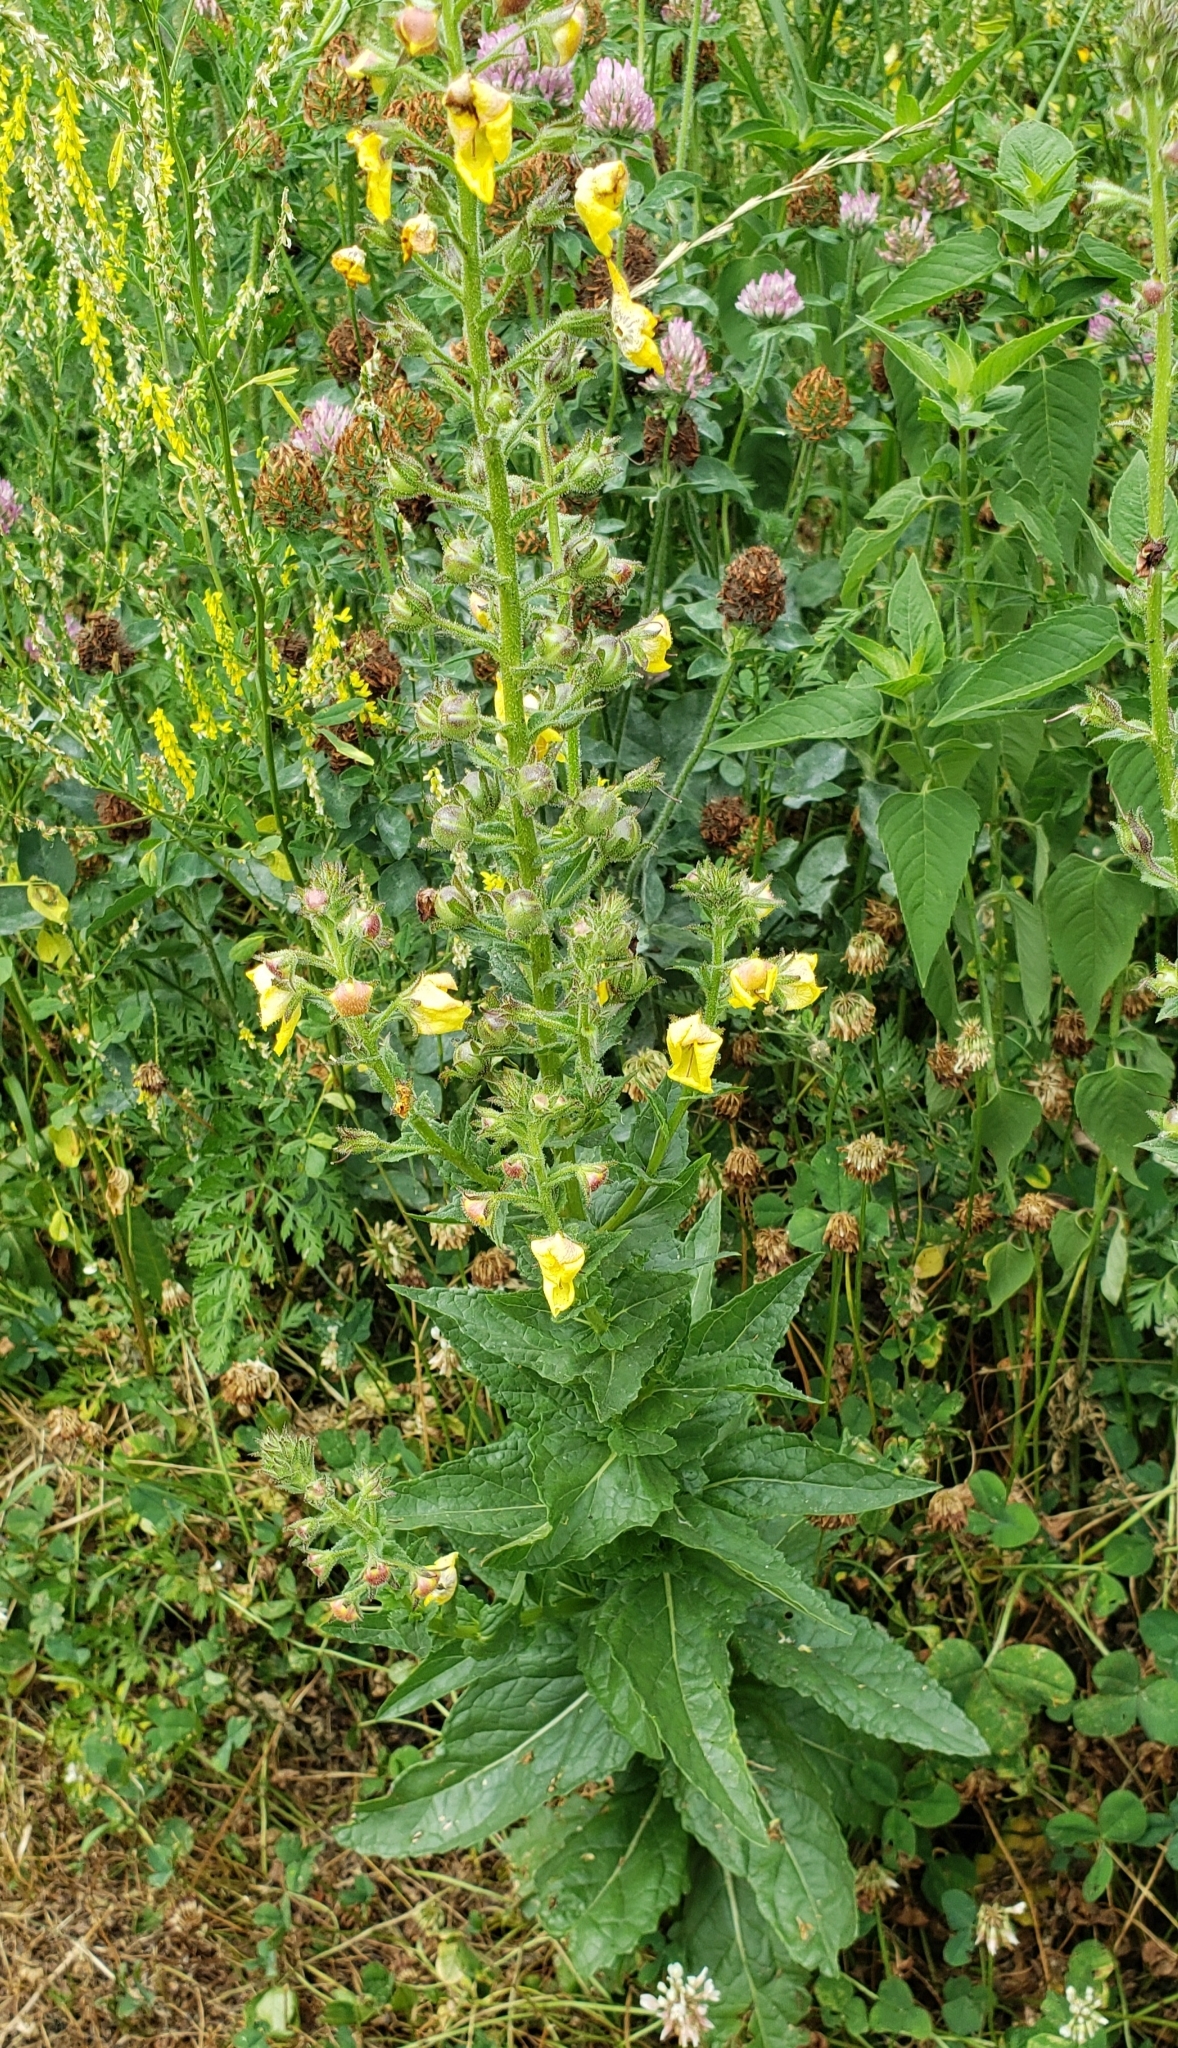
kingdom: Plantae
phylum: Tracheophyta
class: Magnoliopsida
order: Lamiales
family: Scrophulariaceae
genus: Verbascum
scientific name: Verbascum blattaria
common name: Moth mullein
